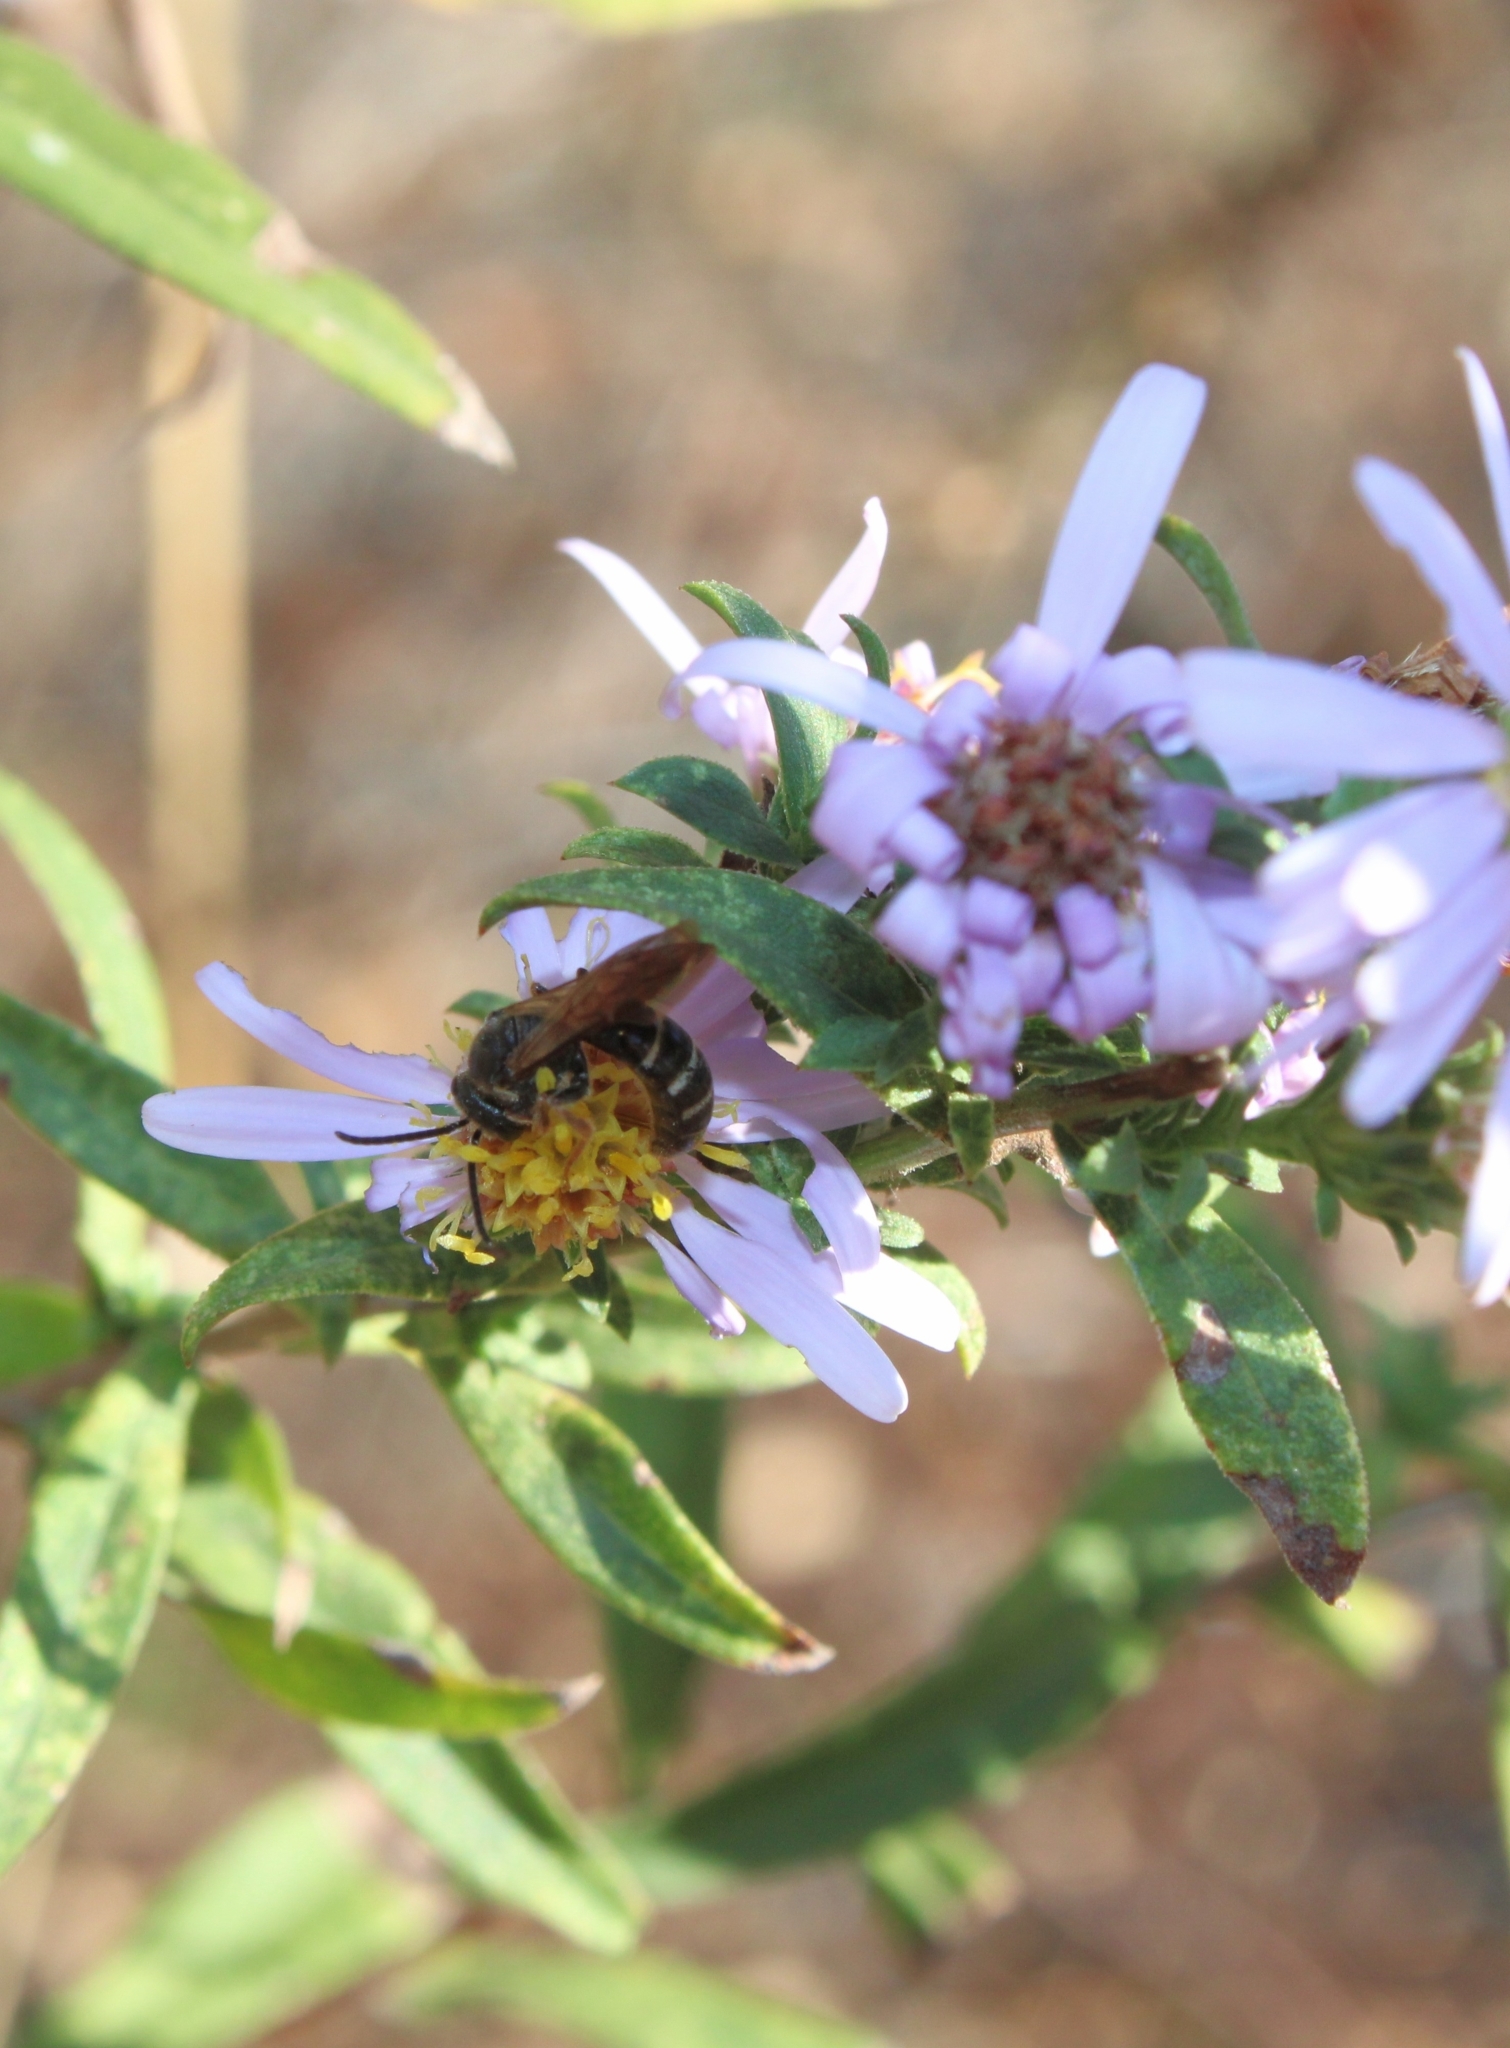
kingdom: Animalia
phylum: Arthropoda
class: Insecta
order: Hymenoptera
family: Halictidae
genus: Lasioglossum
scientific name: Lasioglossum fuscipenne
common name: Brown-winged sweat bee
